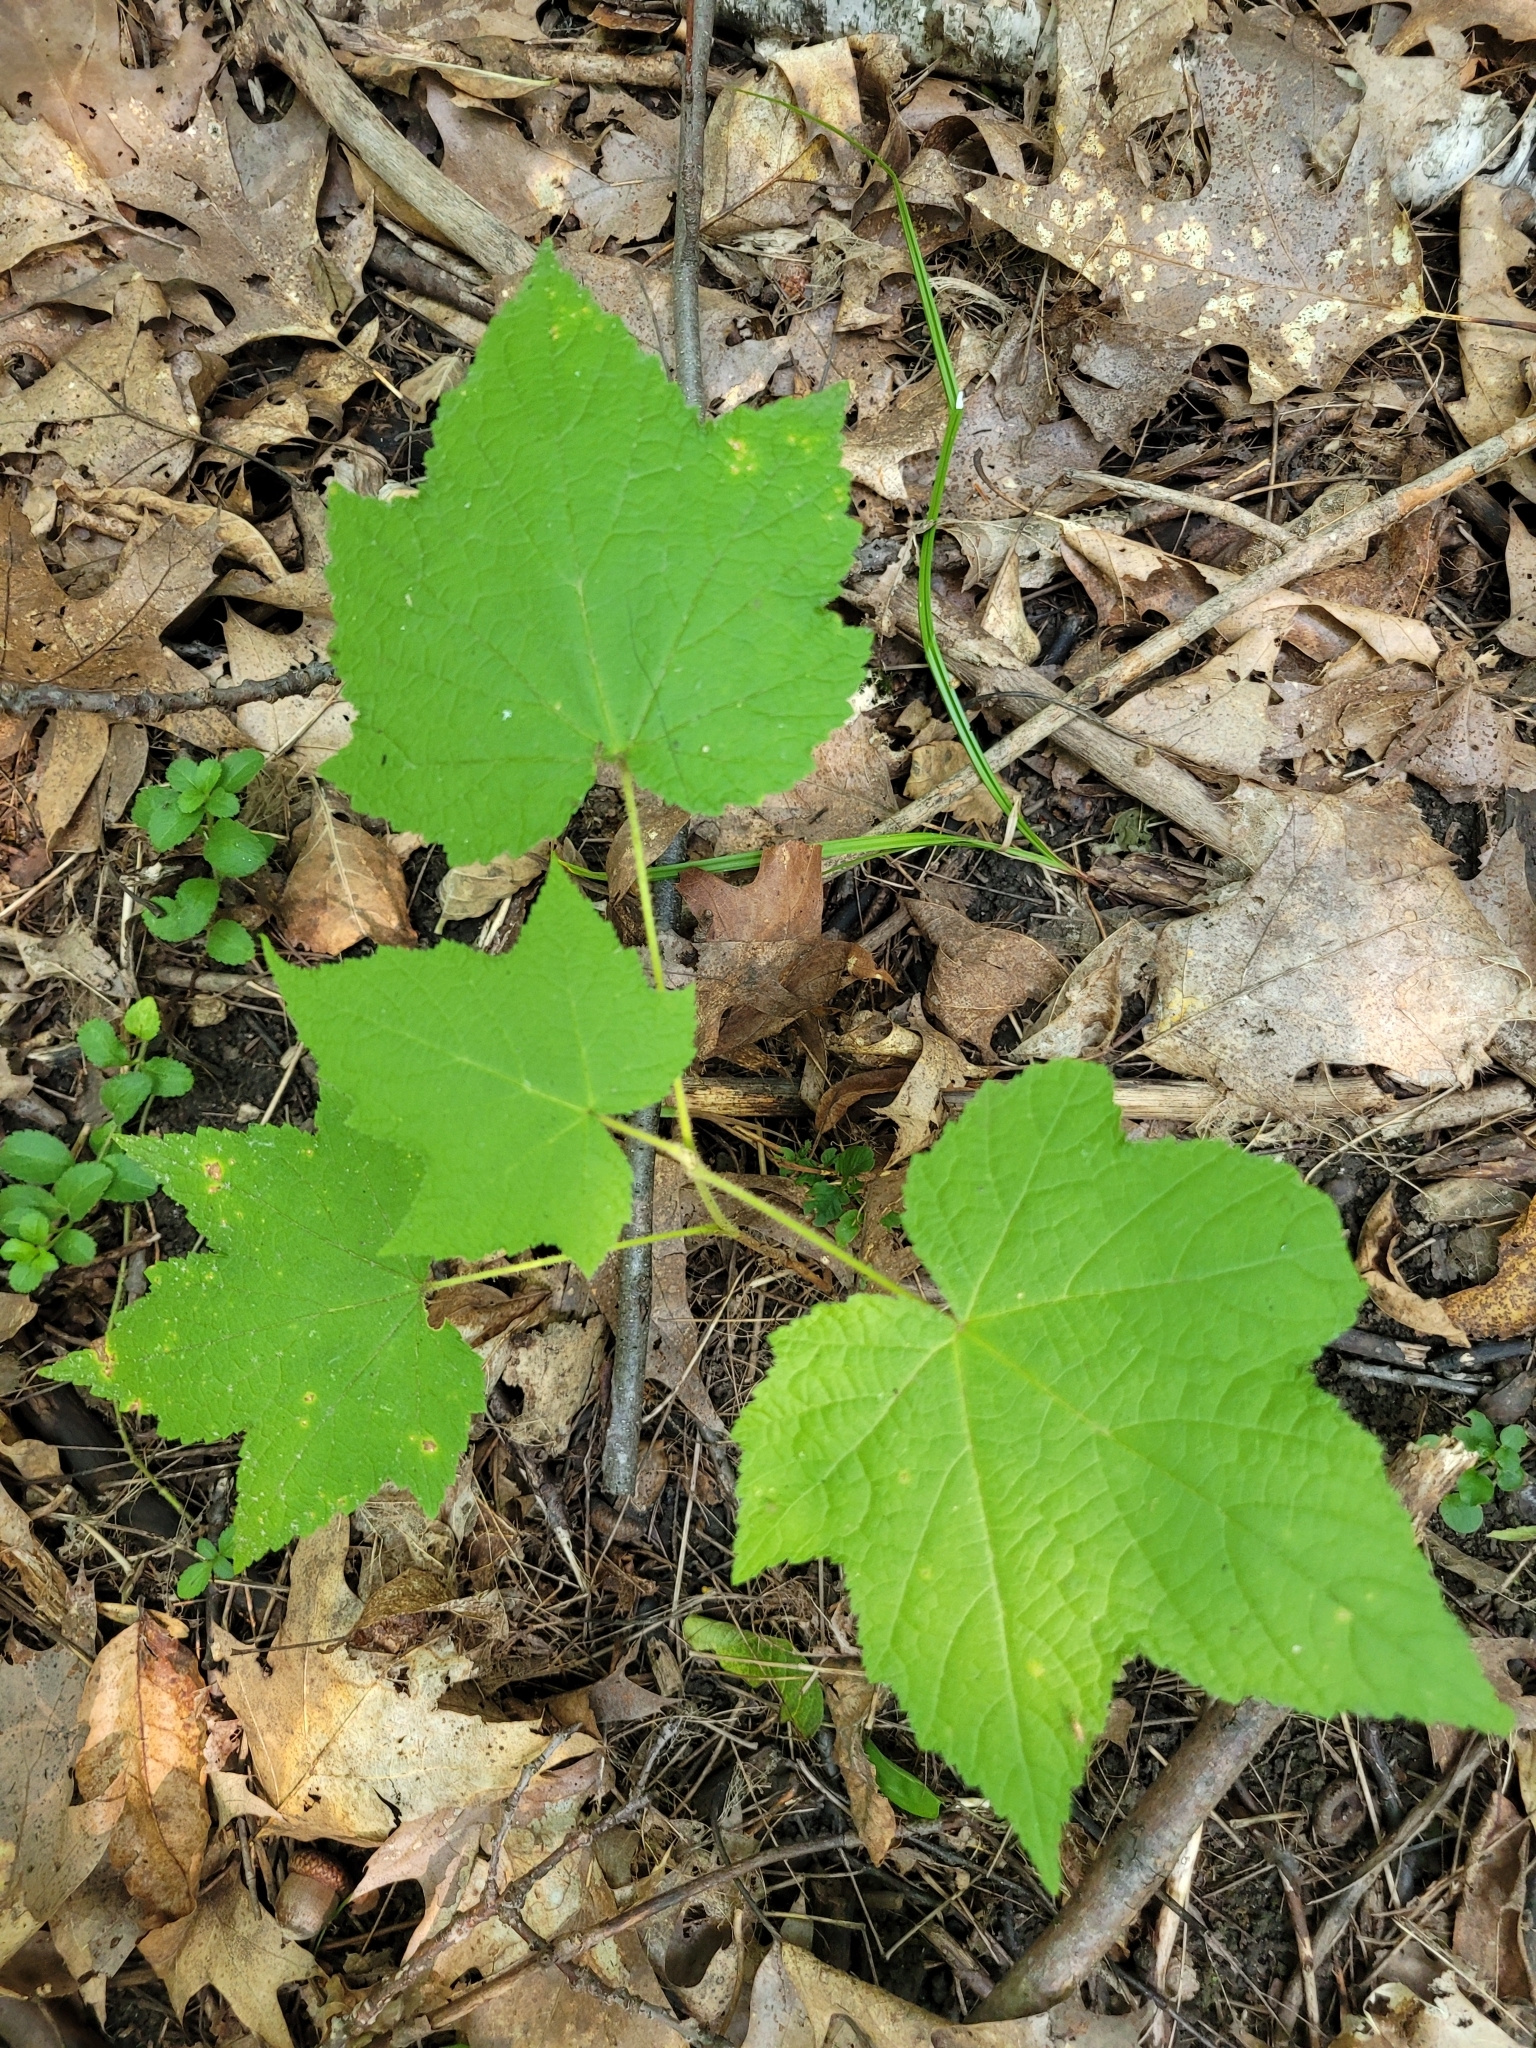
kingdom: Plantae
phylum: Tracheophyta
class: Magnoliopsida
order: Rosales
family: Rosaceae
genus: Rubus
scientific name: Rubus odoratus
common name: Purple-flowered raspberry
